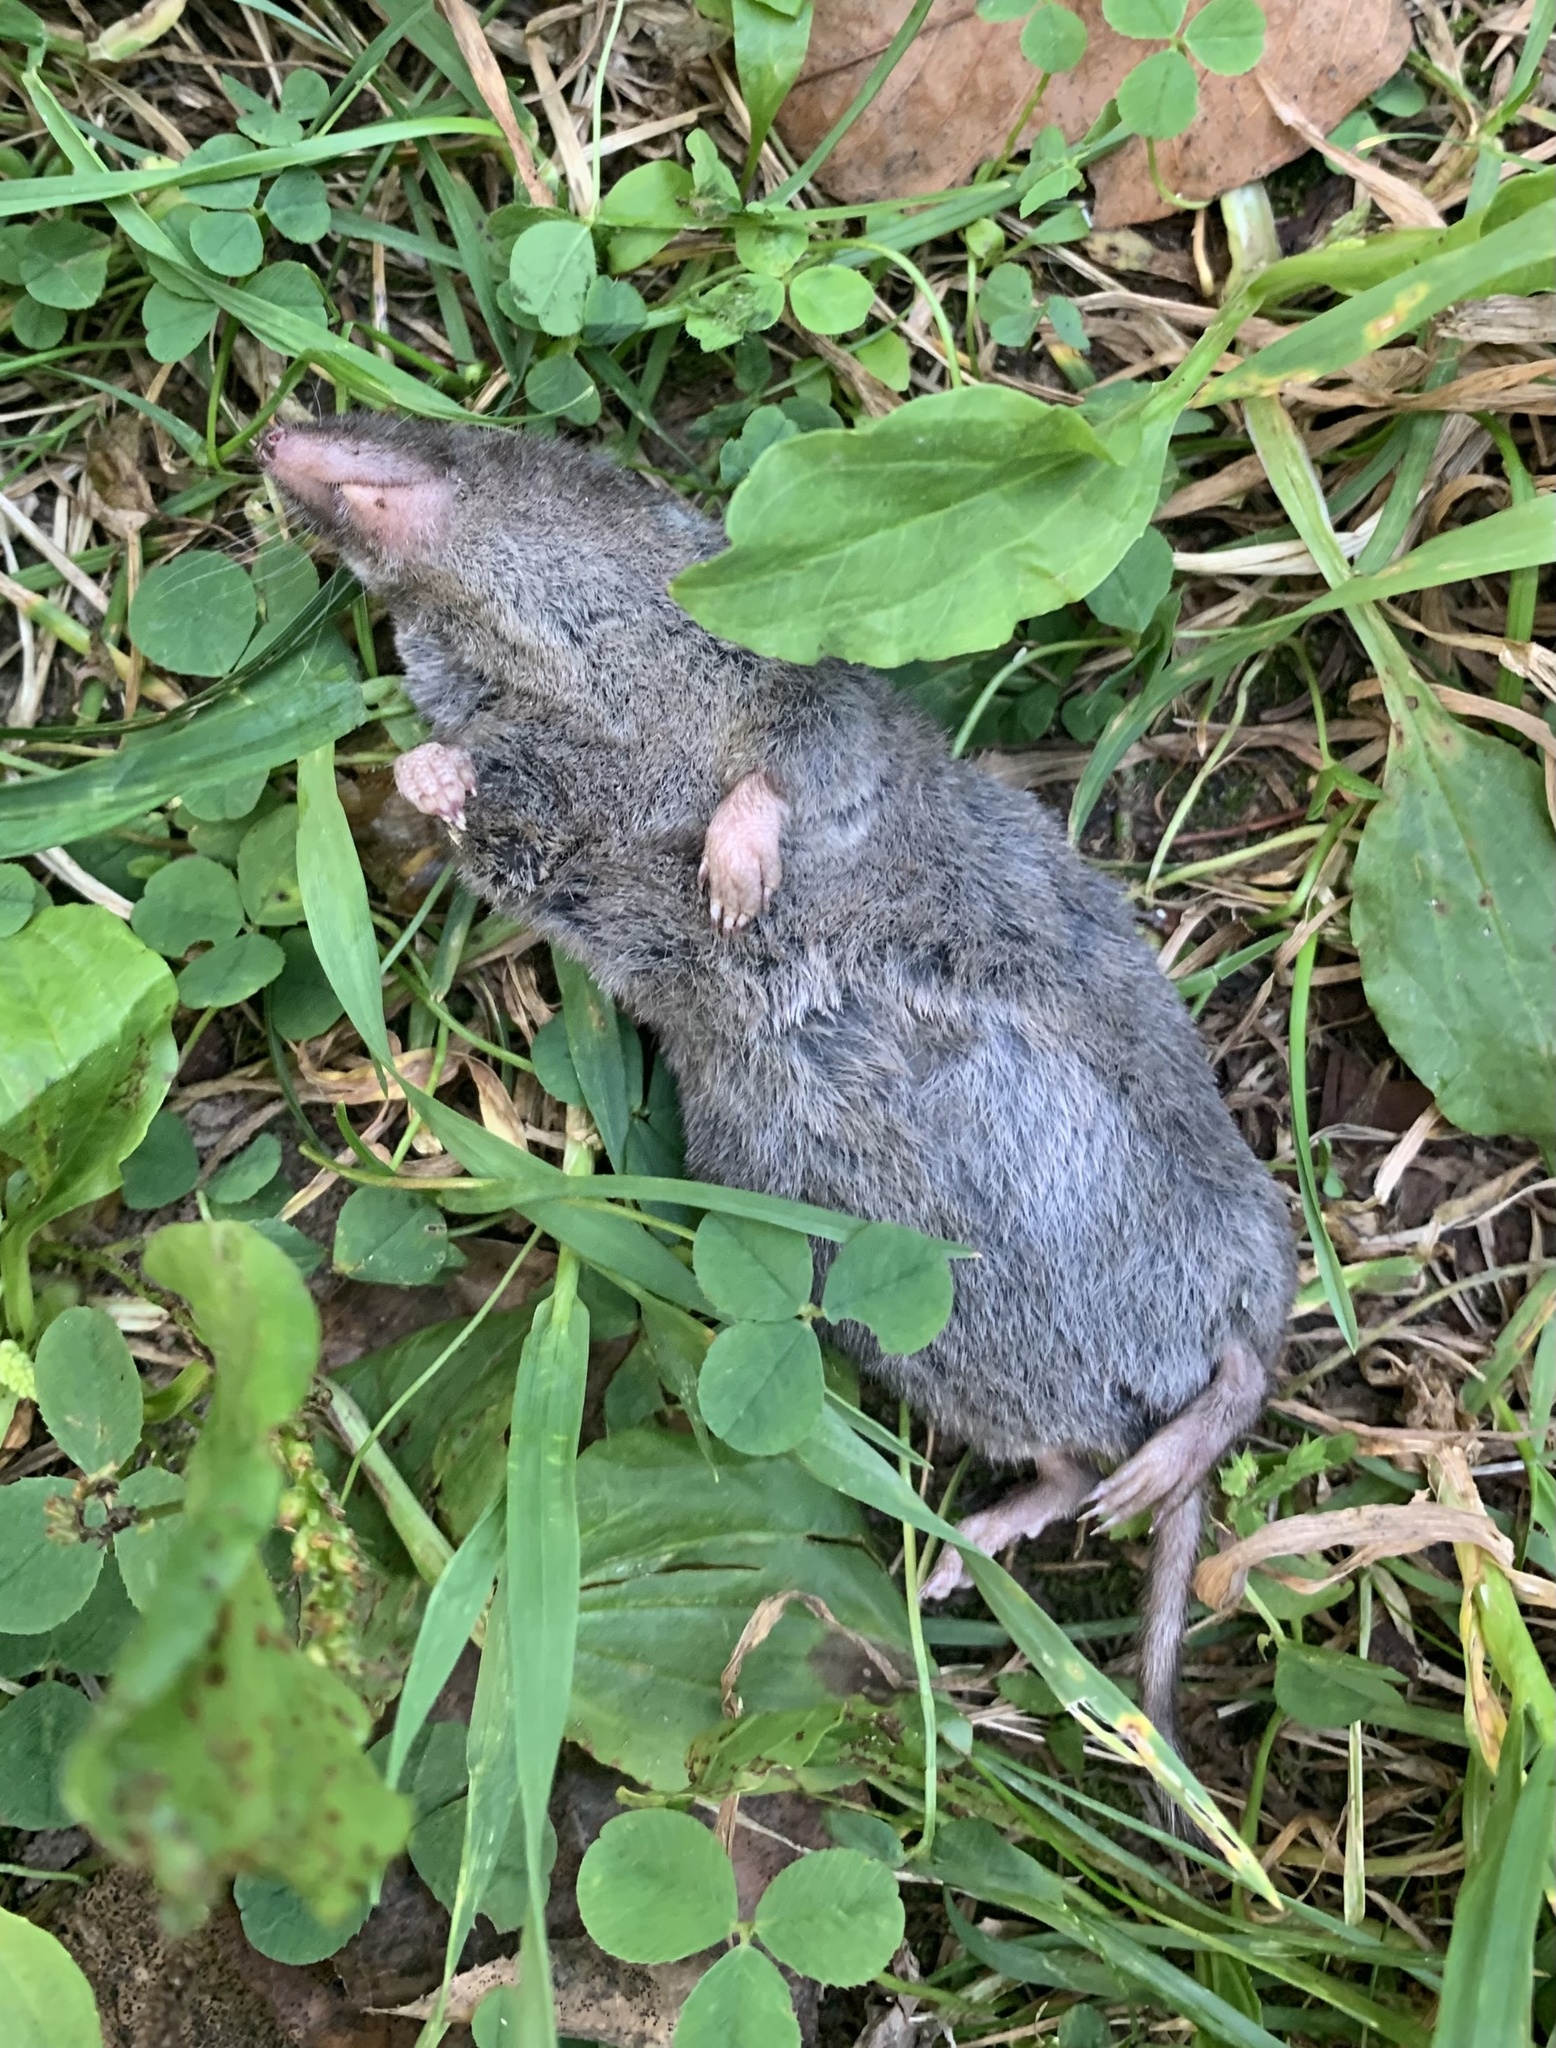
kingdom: Animalia
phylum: Chordata
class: Mammalia
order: Soricomorpha
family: Soricidae
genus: Blarina
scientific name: Blarina brevicauda
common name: Northern short-tailed shrew
